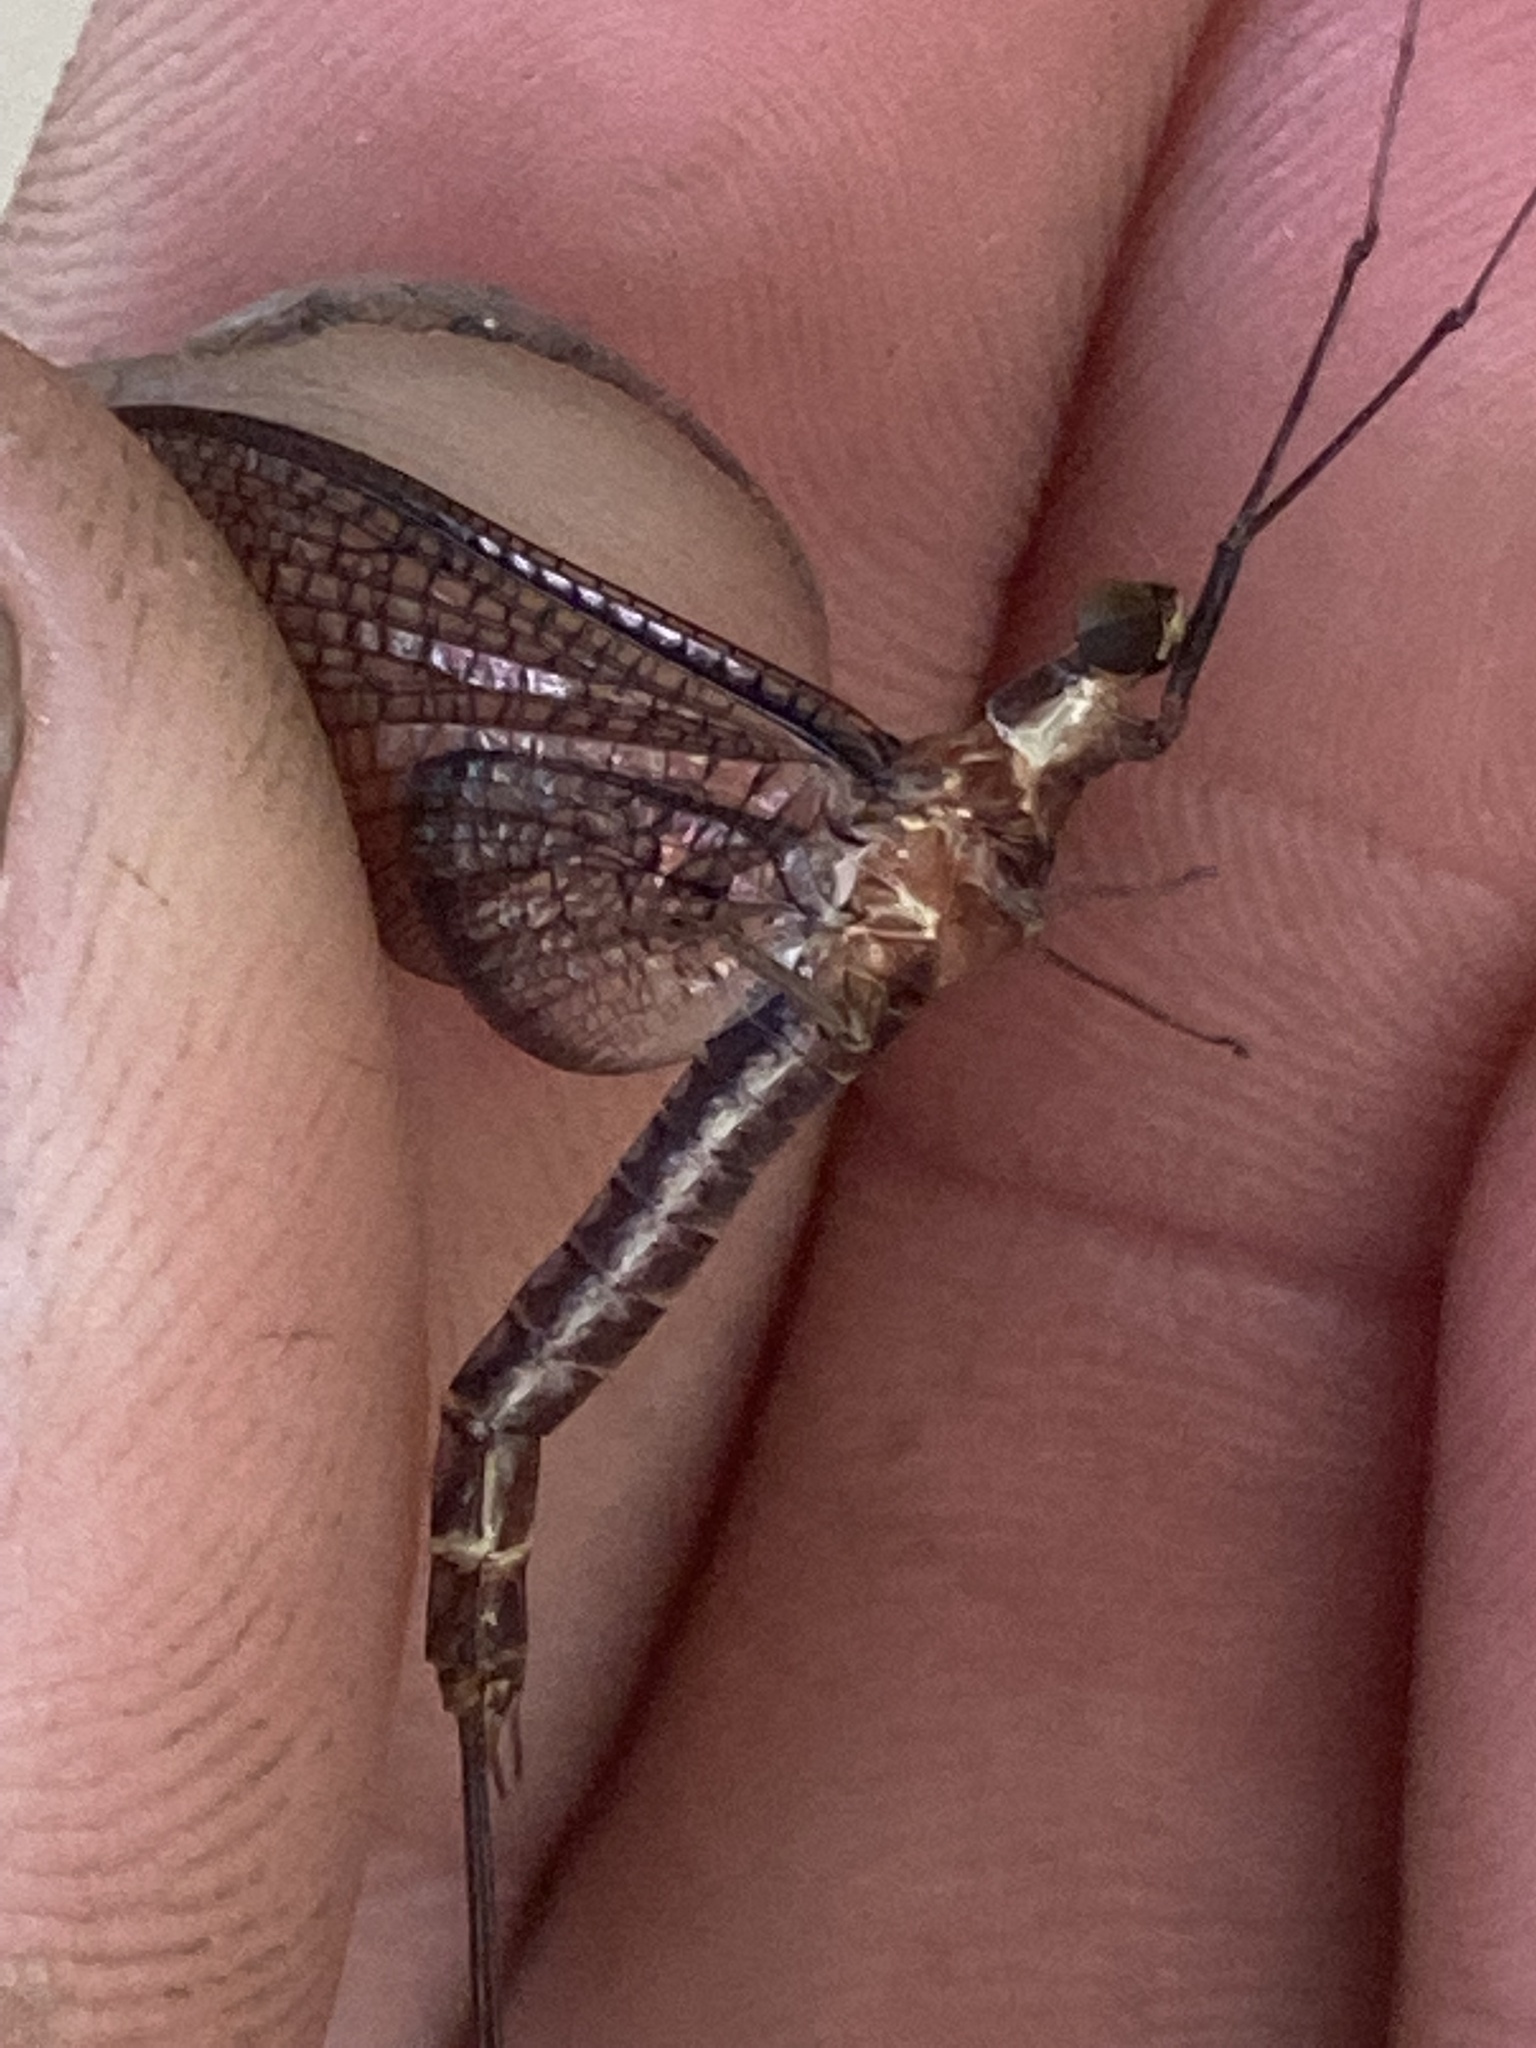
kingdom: Animalia
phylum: Arthropoda
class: Insecta
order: Ephemeroptera
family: Ephemeridae
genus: Hexagenia
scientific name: Hexagenia bilineata
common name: Emergent mayfly
